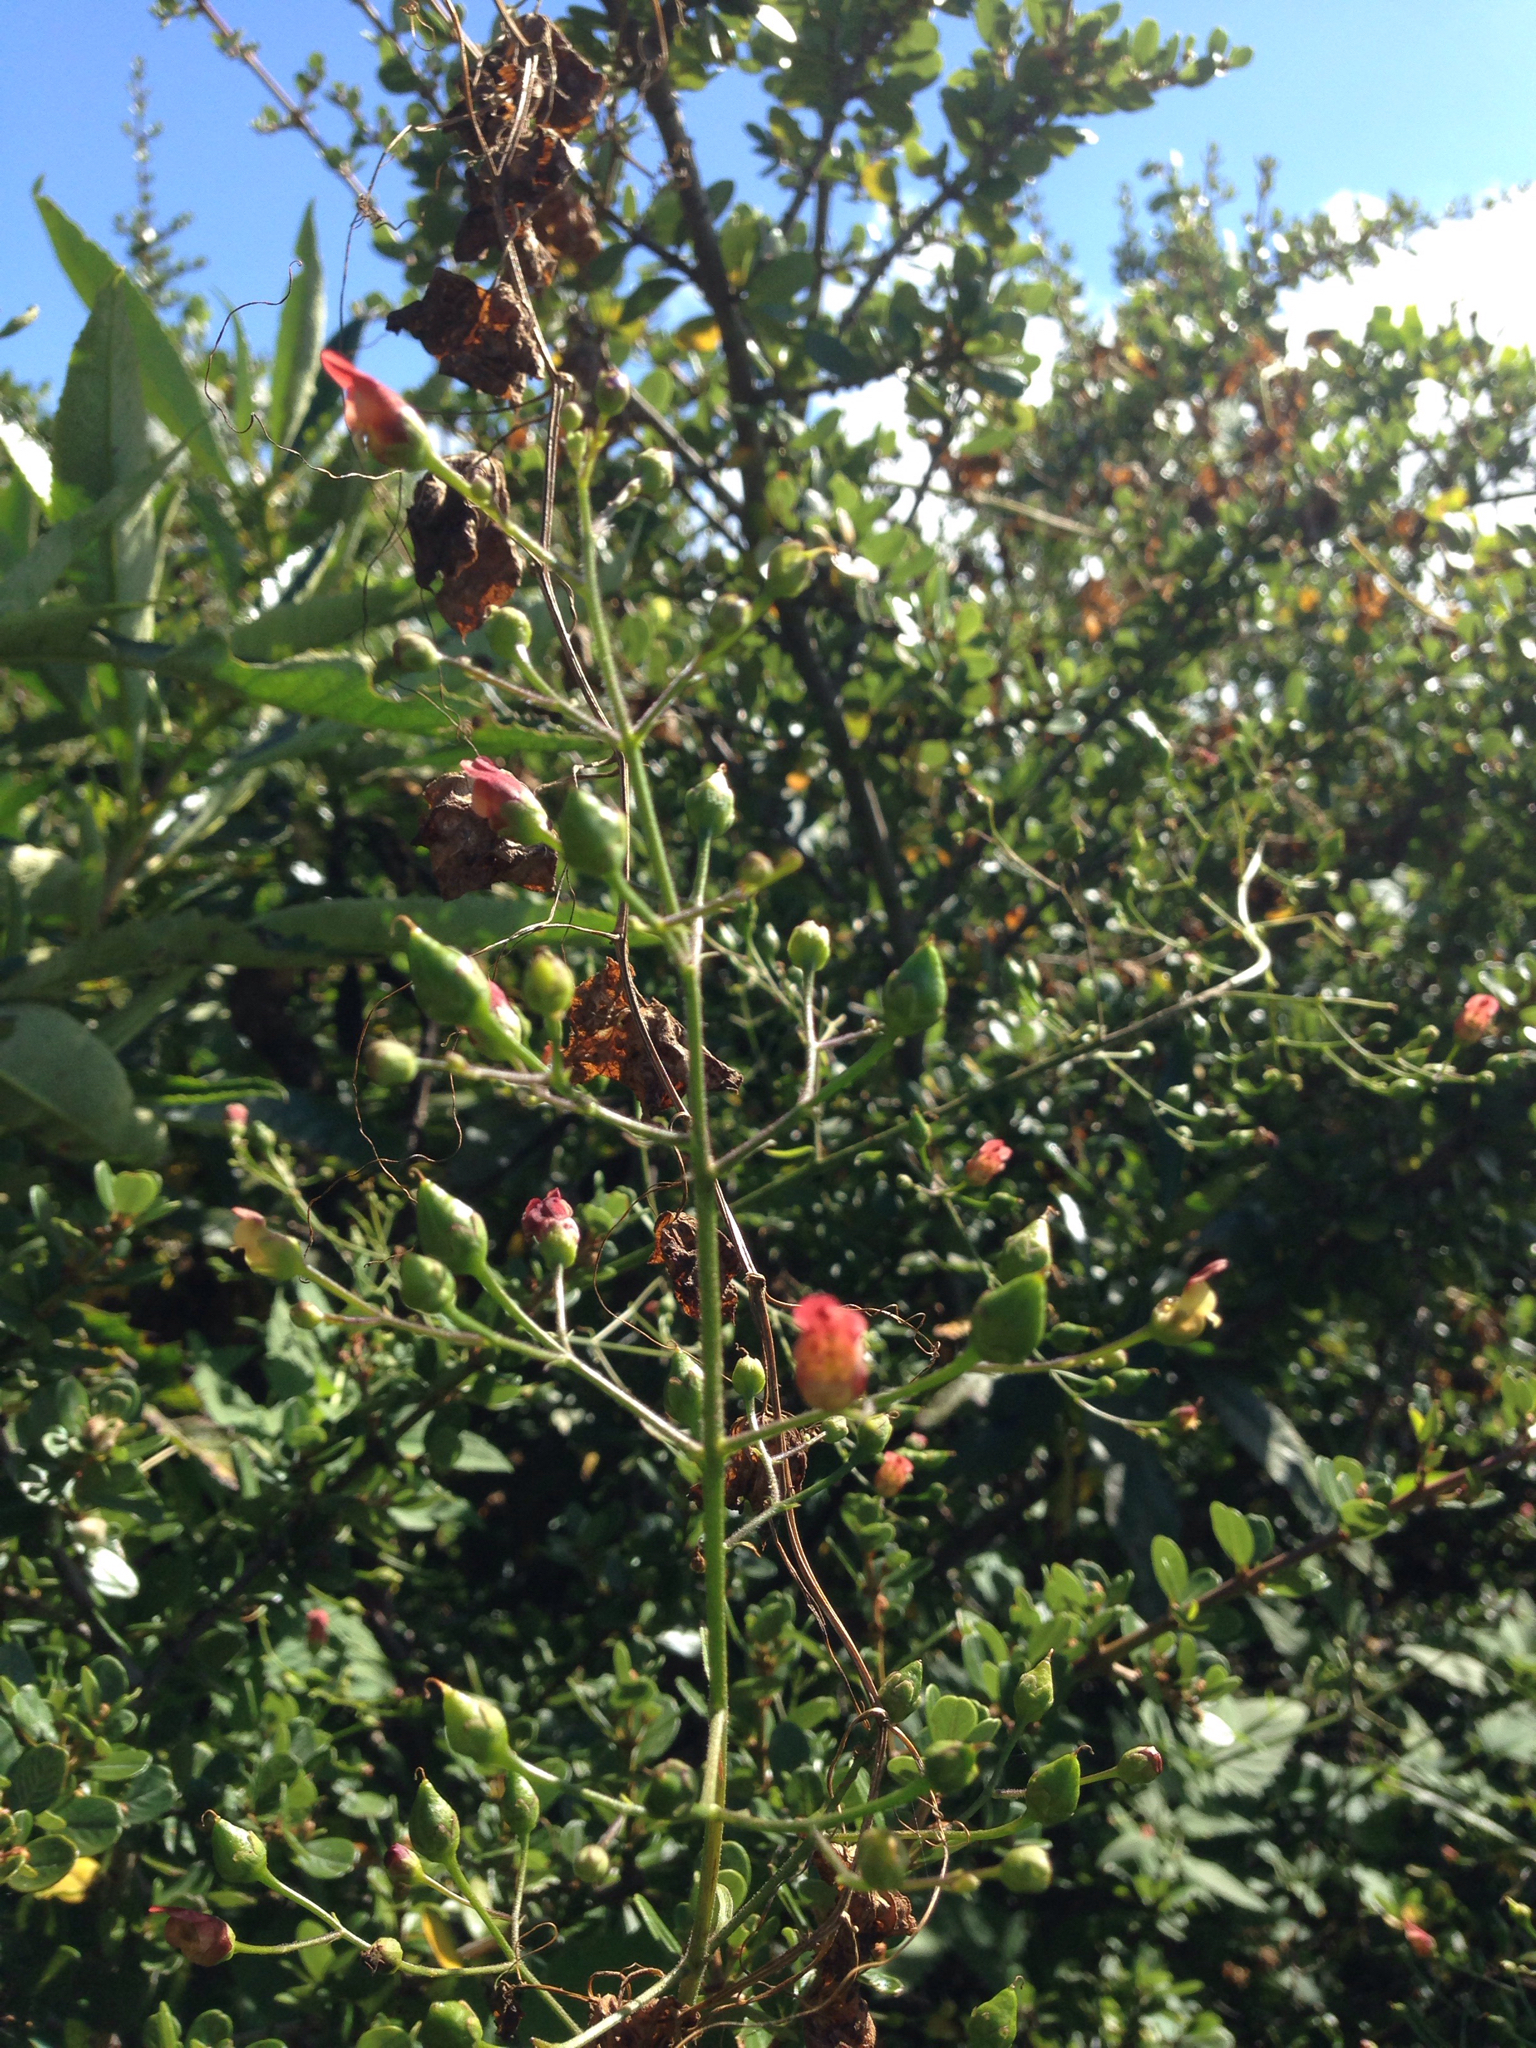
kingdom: Plantae
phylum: Tracheophyta
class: Magnoliopsida
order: Lamiales
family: Scrophulariaceae
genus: Scrophularia
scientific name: Scrophularia californica
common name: California figwort
